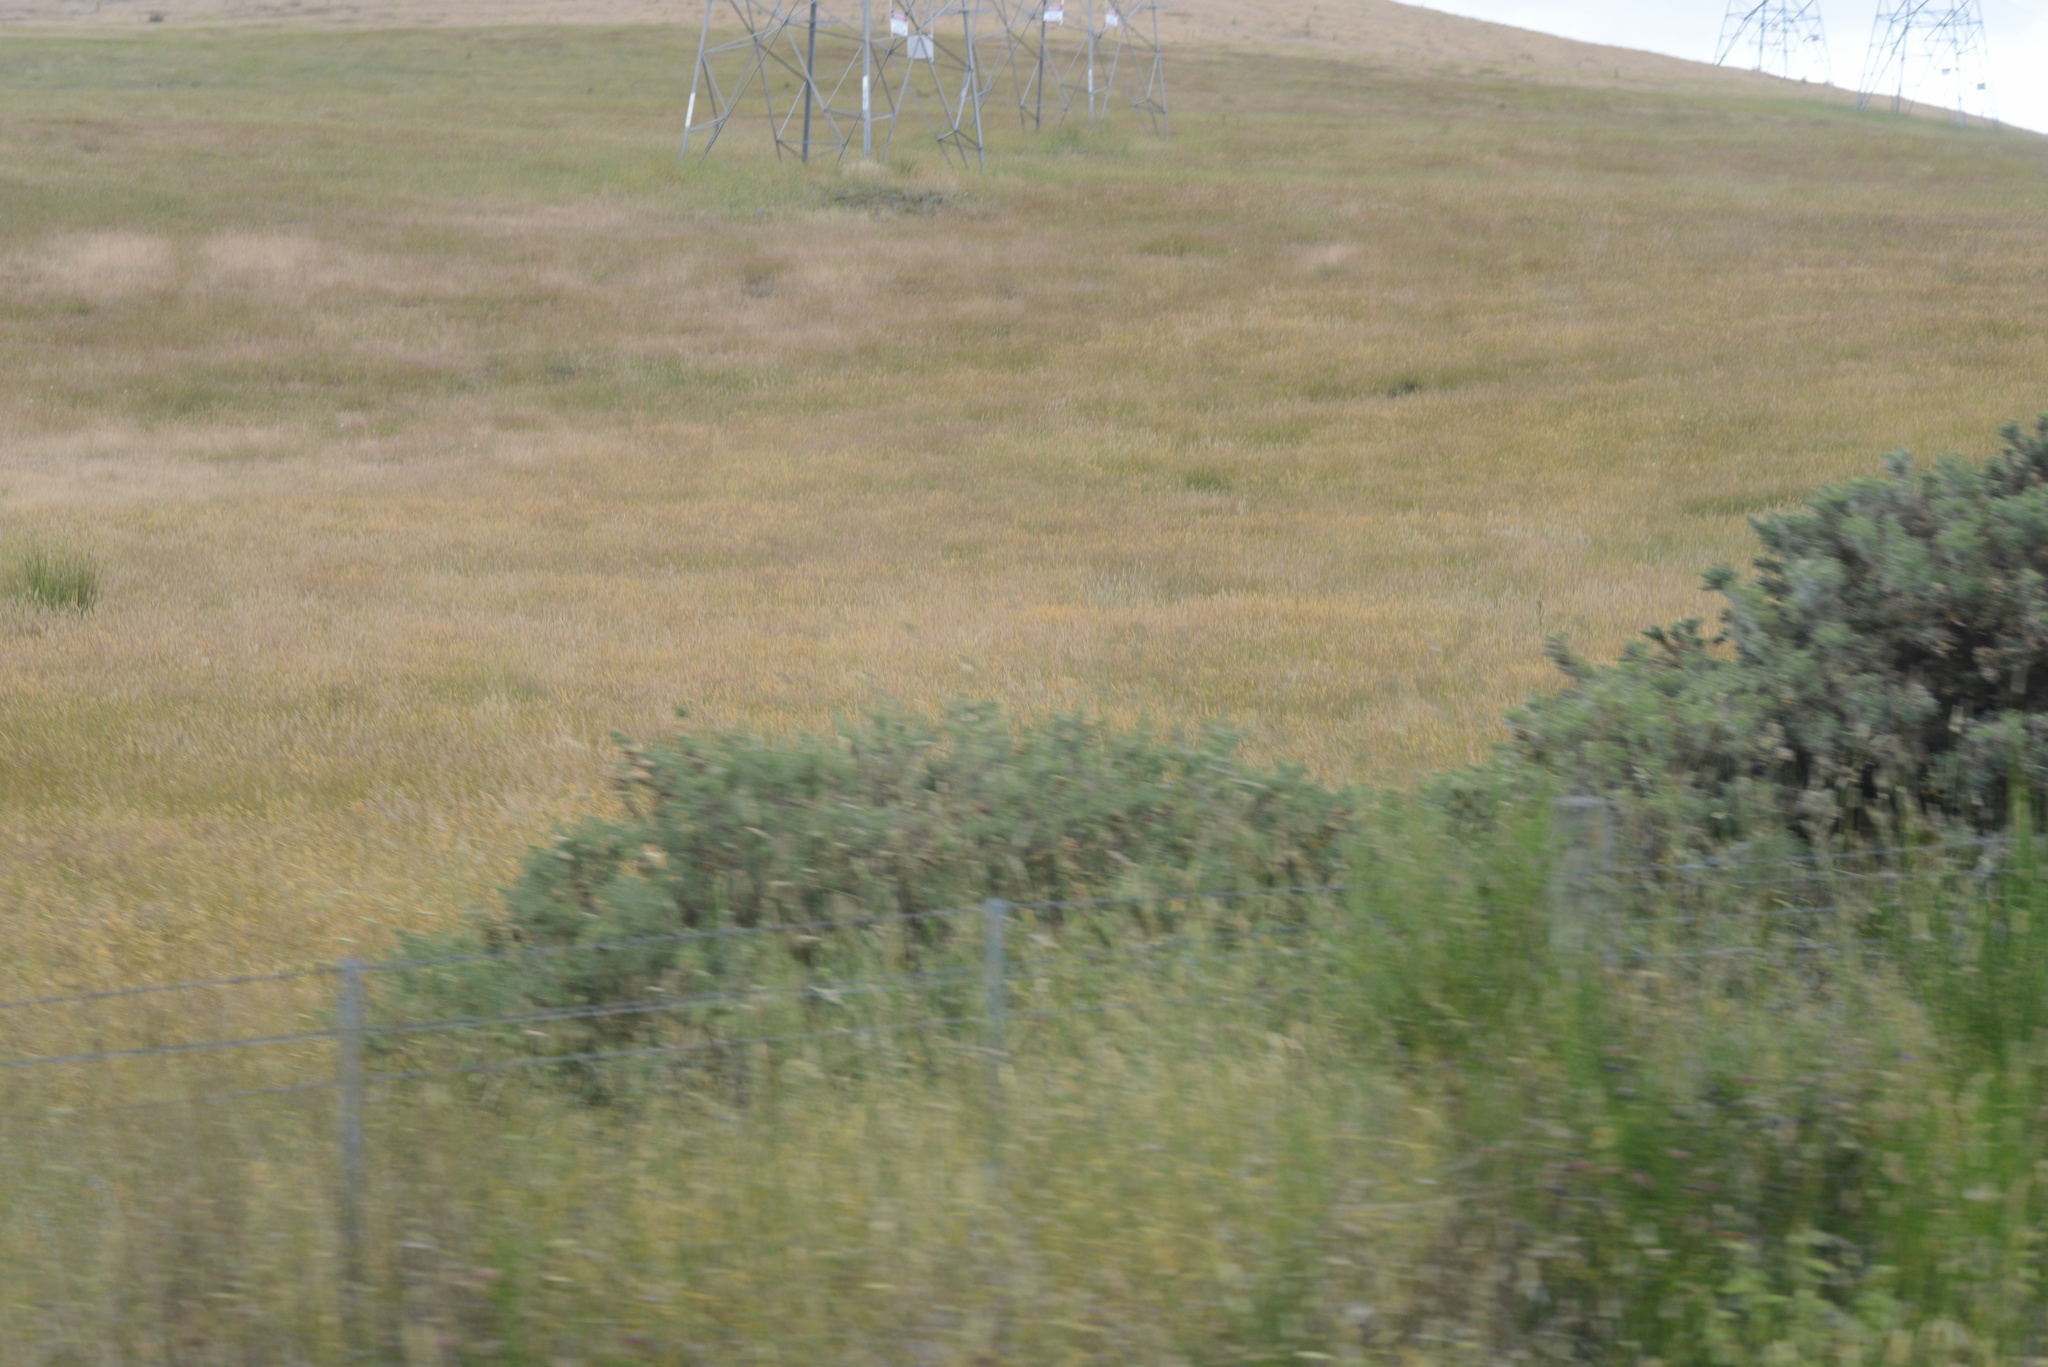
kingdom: Plantae
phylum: Tracheophyta
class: Magnoliopsida
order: Fabales
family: Fabaceae
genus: Ulex
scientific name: Ulex europaeus
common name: Common gorse
